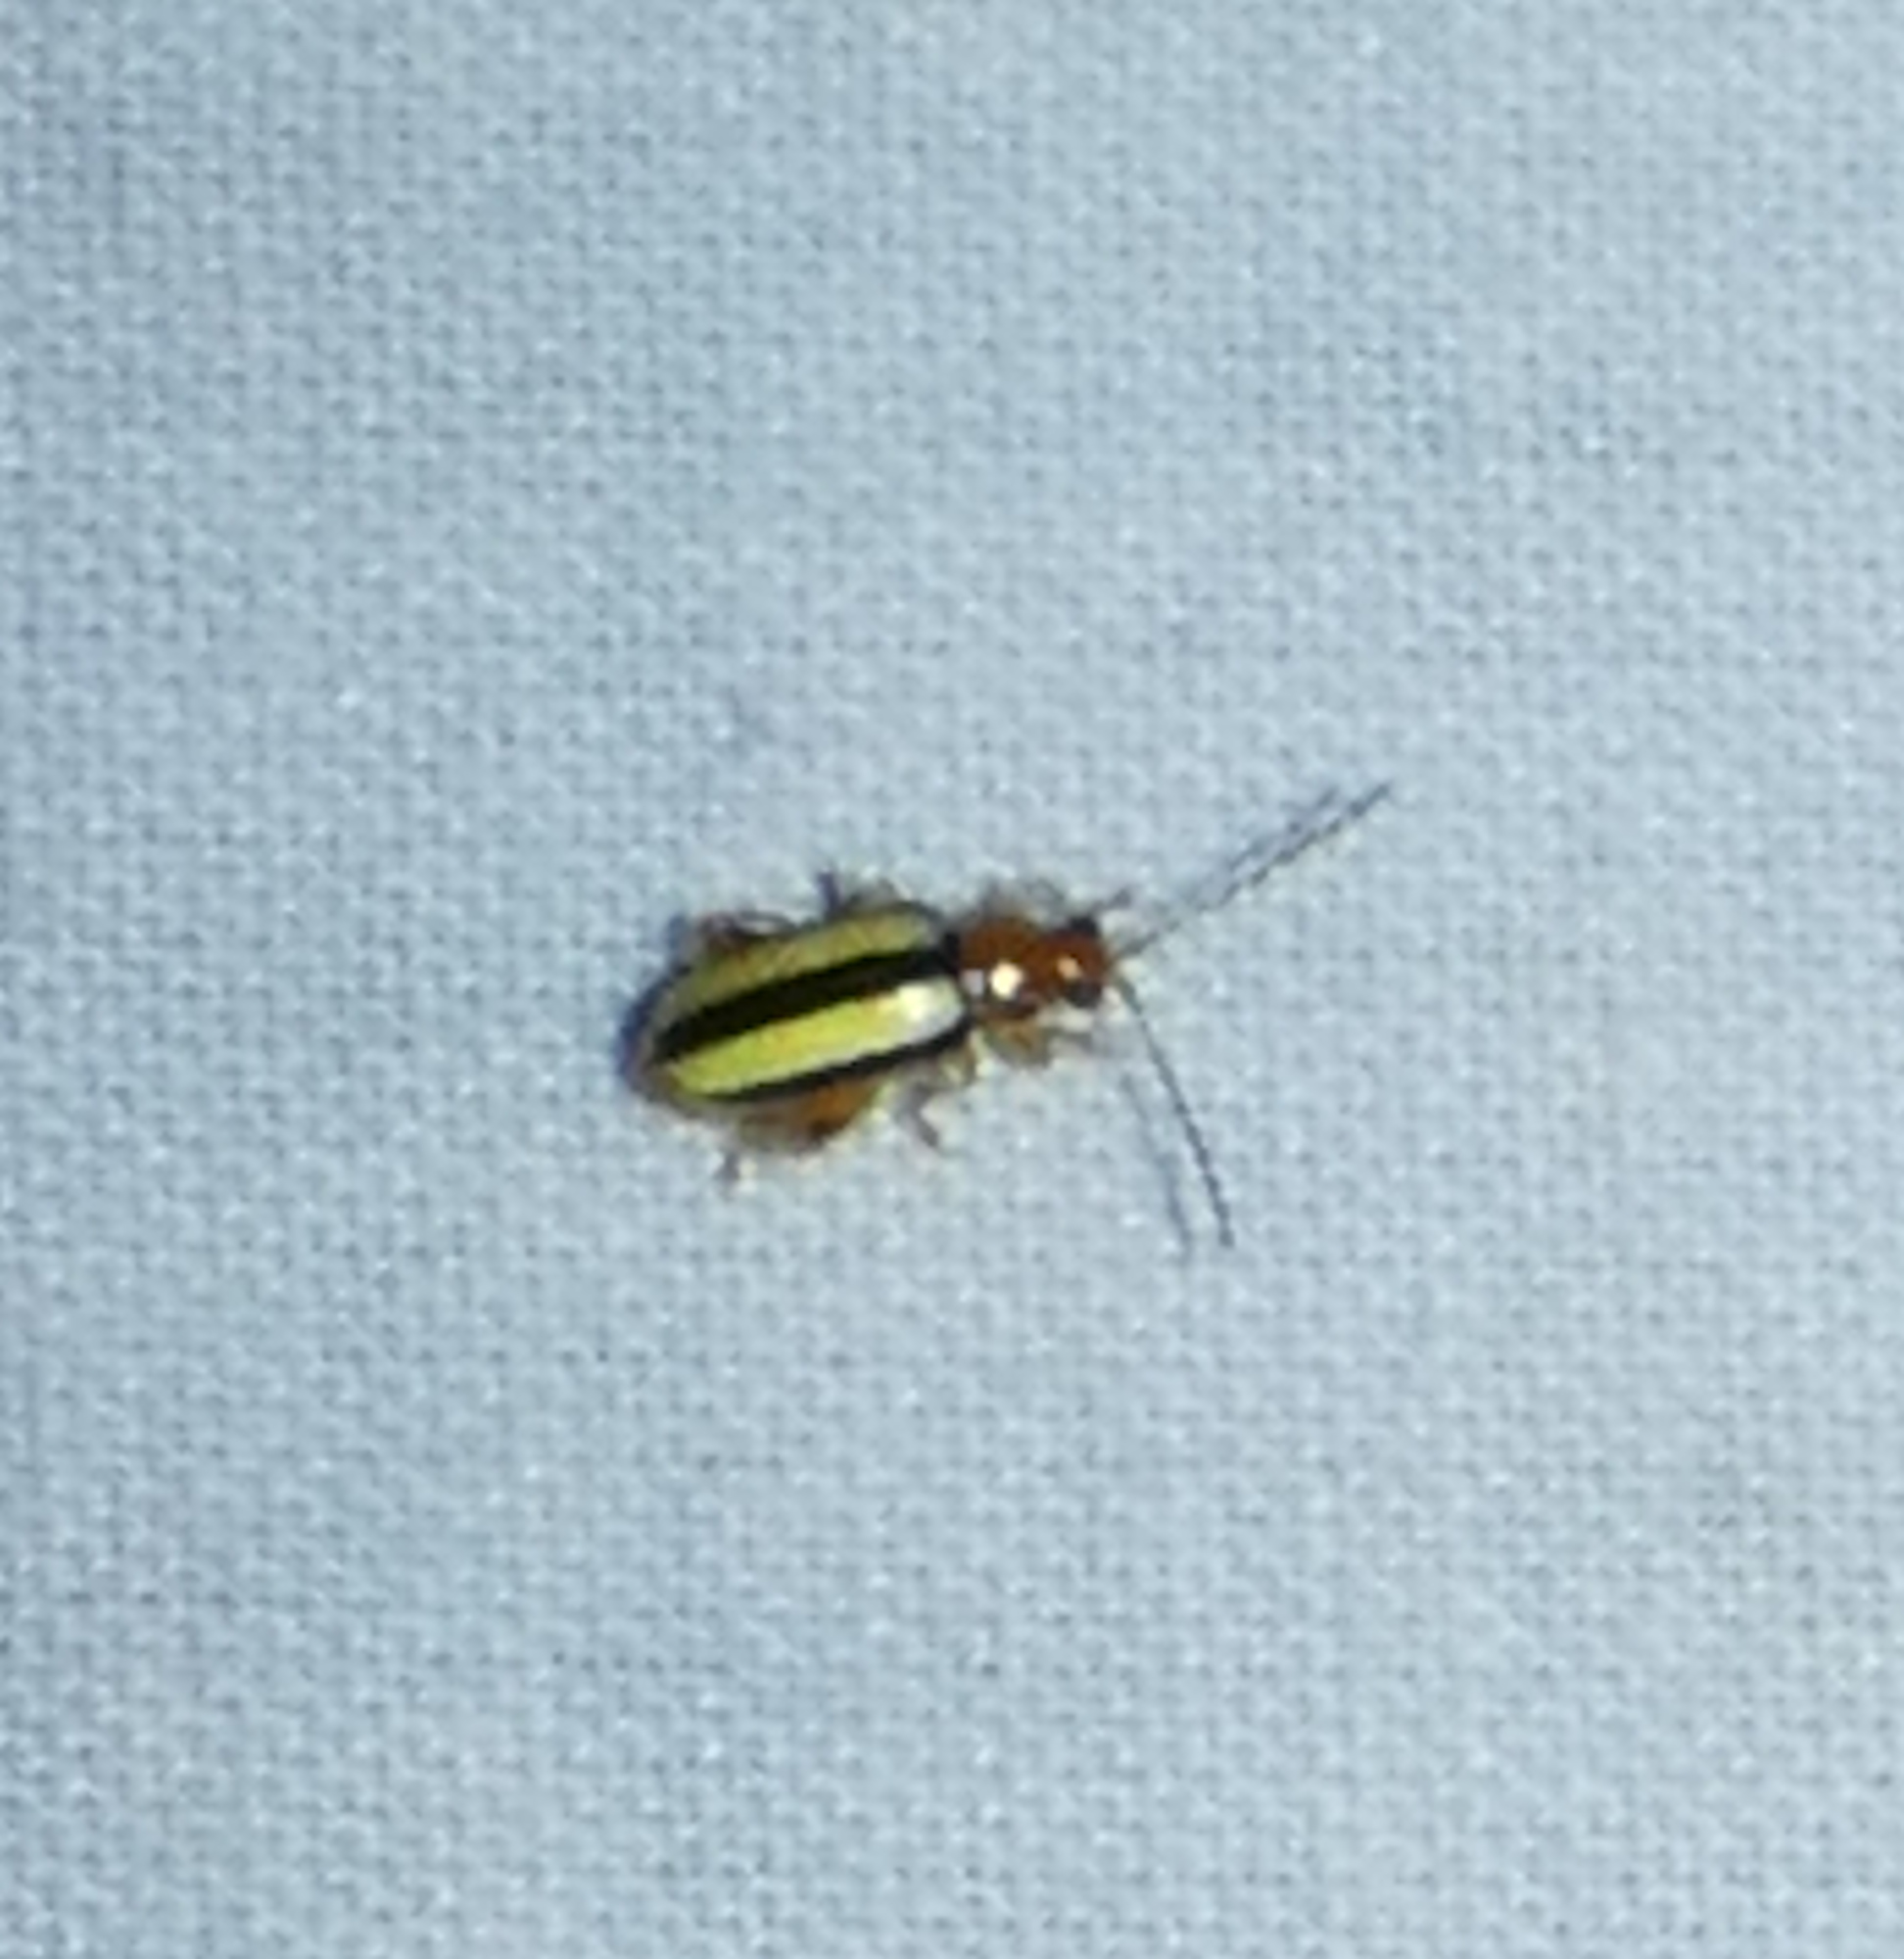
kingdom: Animalia
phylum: Arthropoda
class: Insecta
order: Coleoptera
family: Chrysomelidae
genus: Systena
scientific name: Systena gracilenta
